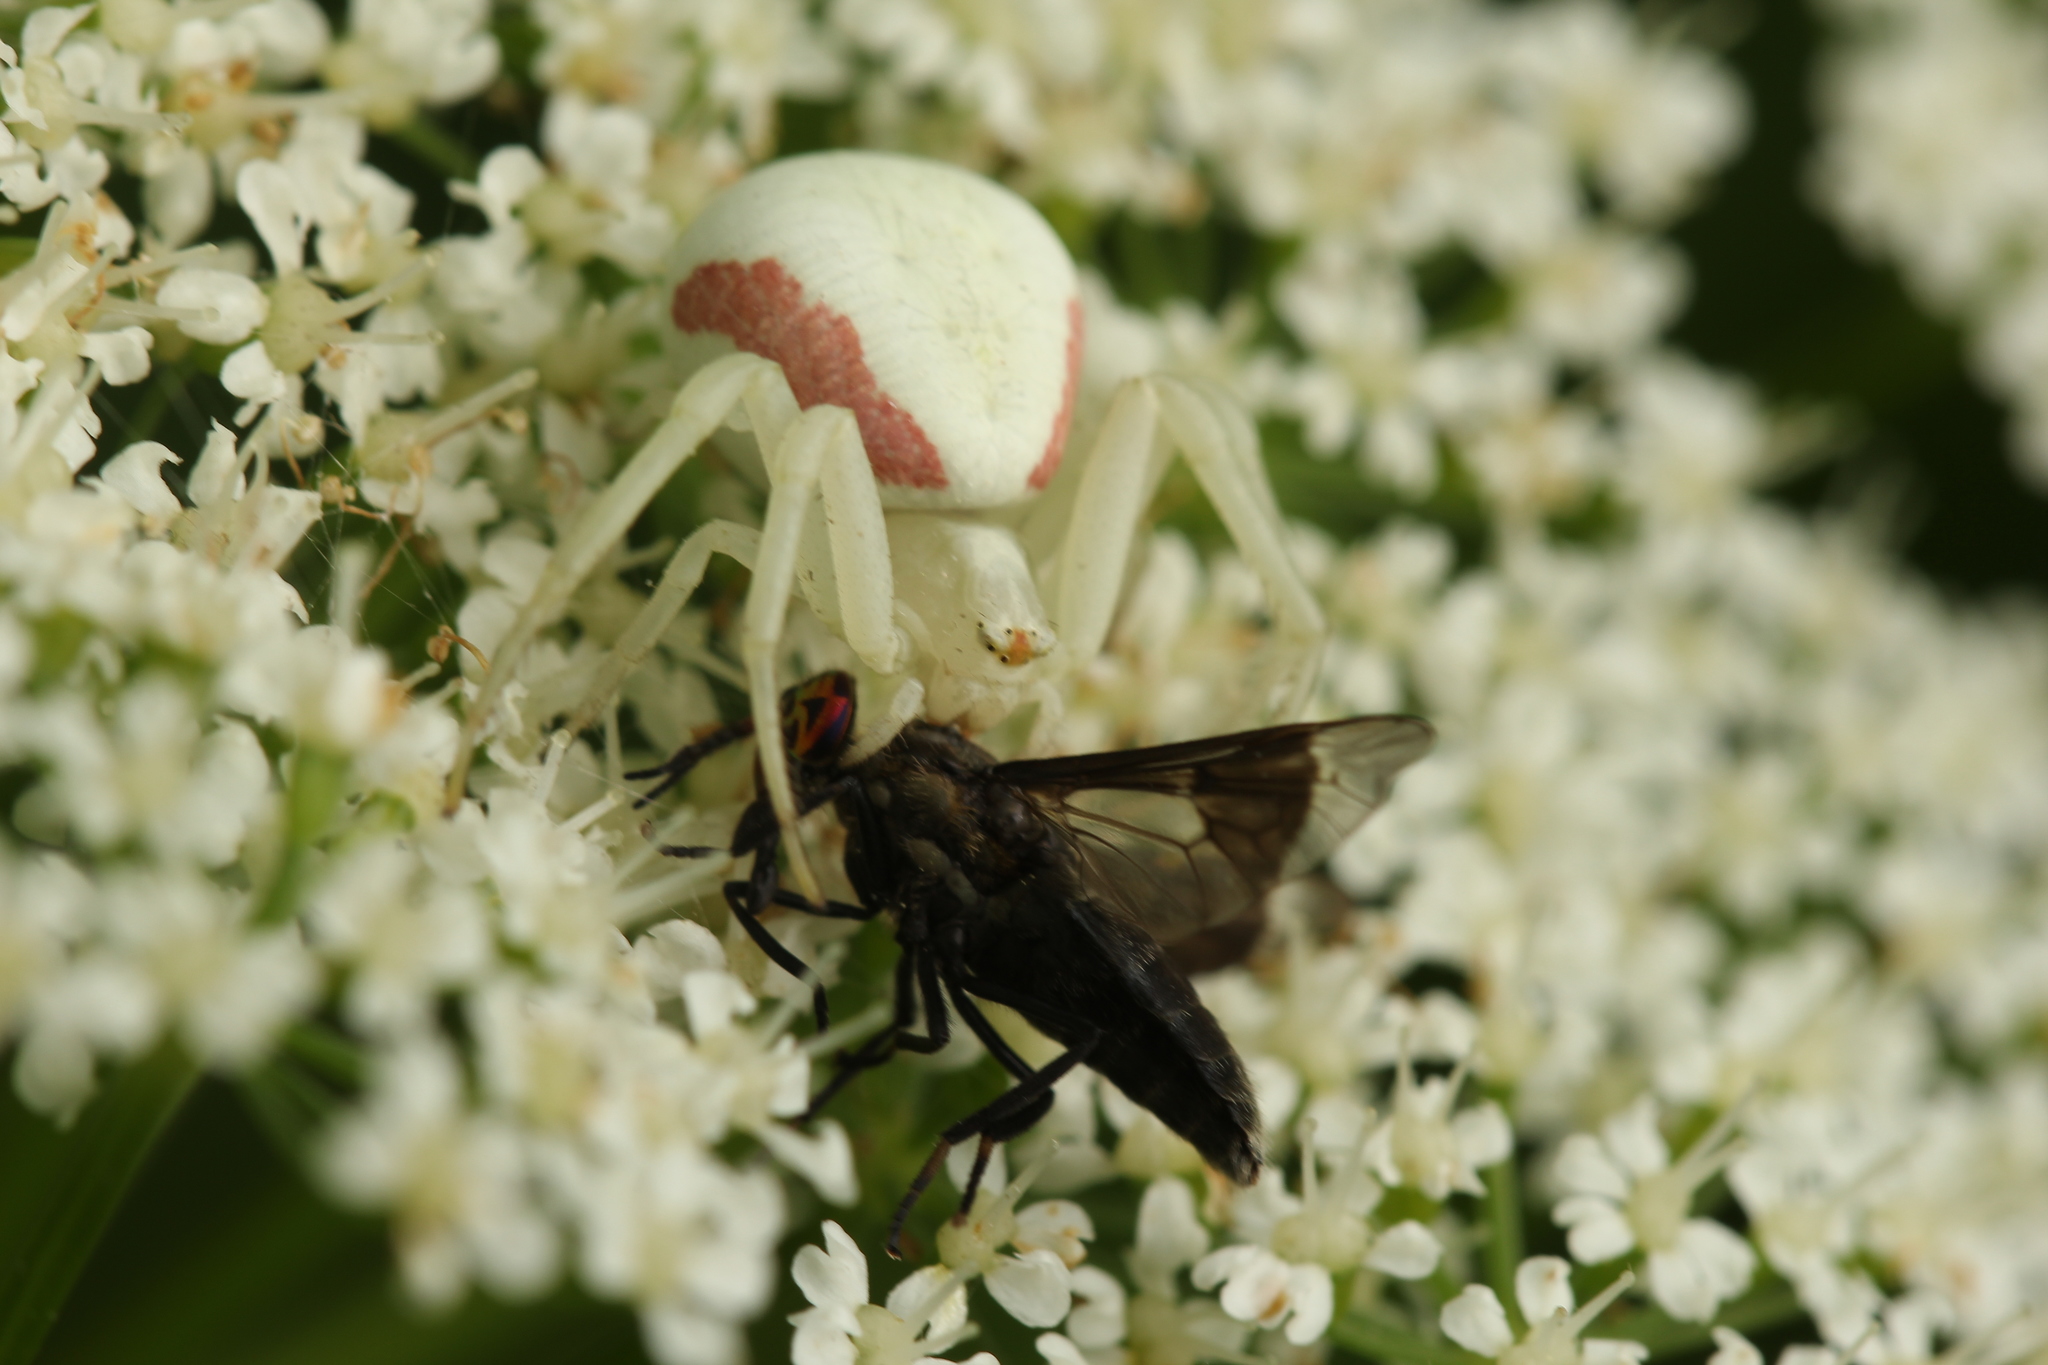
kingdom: Animalia
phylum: Arthropoda
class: Arachnida
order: Araneae
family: Thomisidae
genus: Misumena
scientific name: Misumena vatia
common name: Goldenrod crab spider
